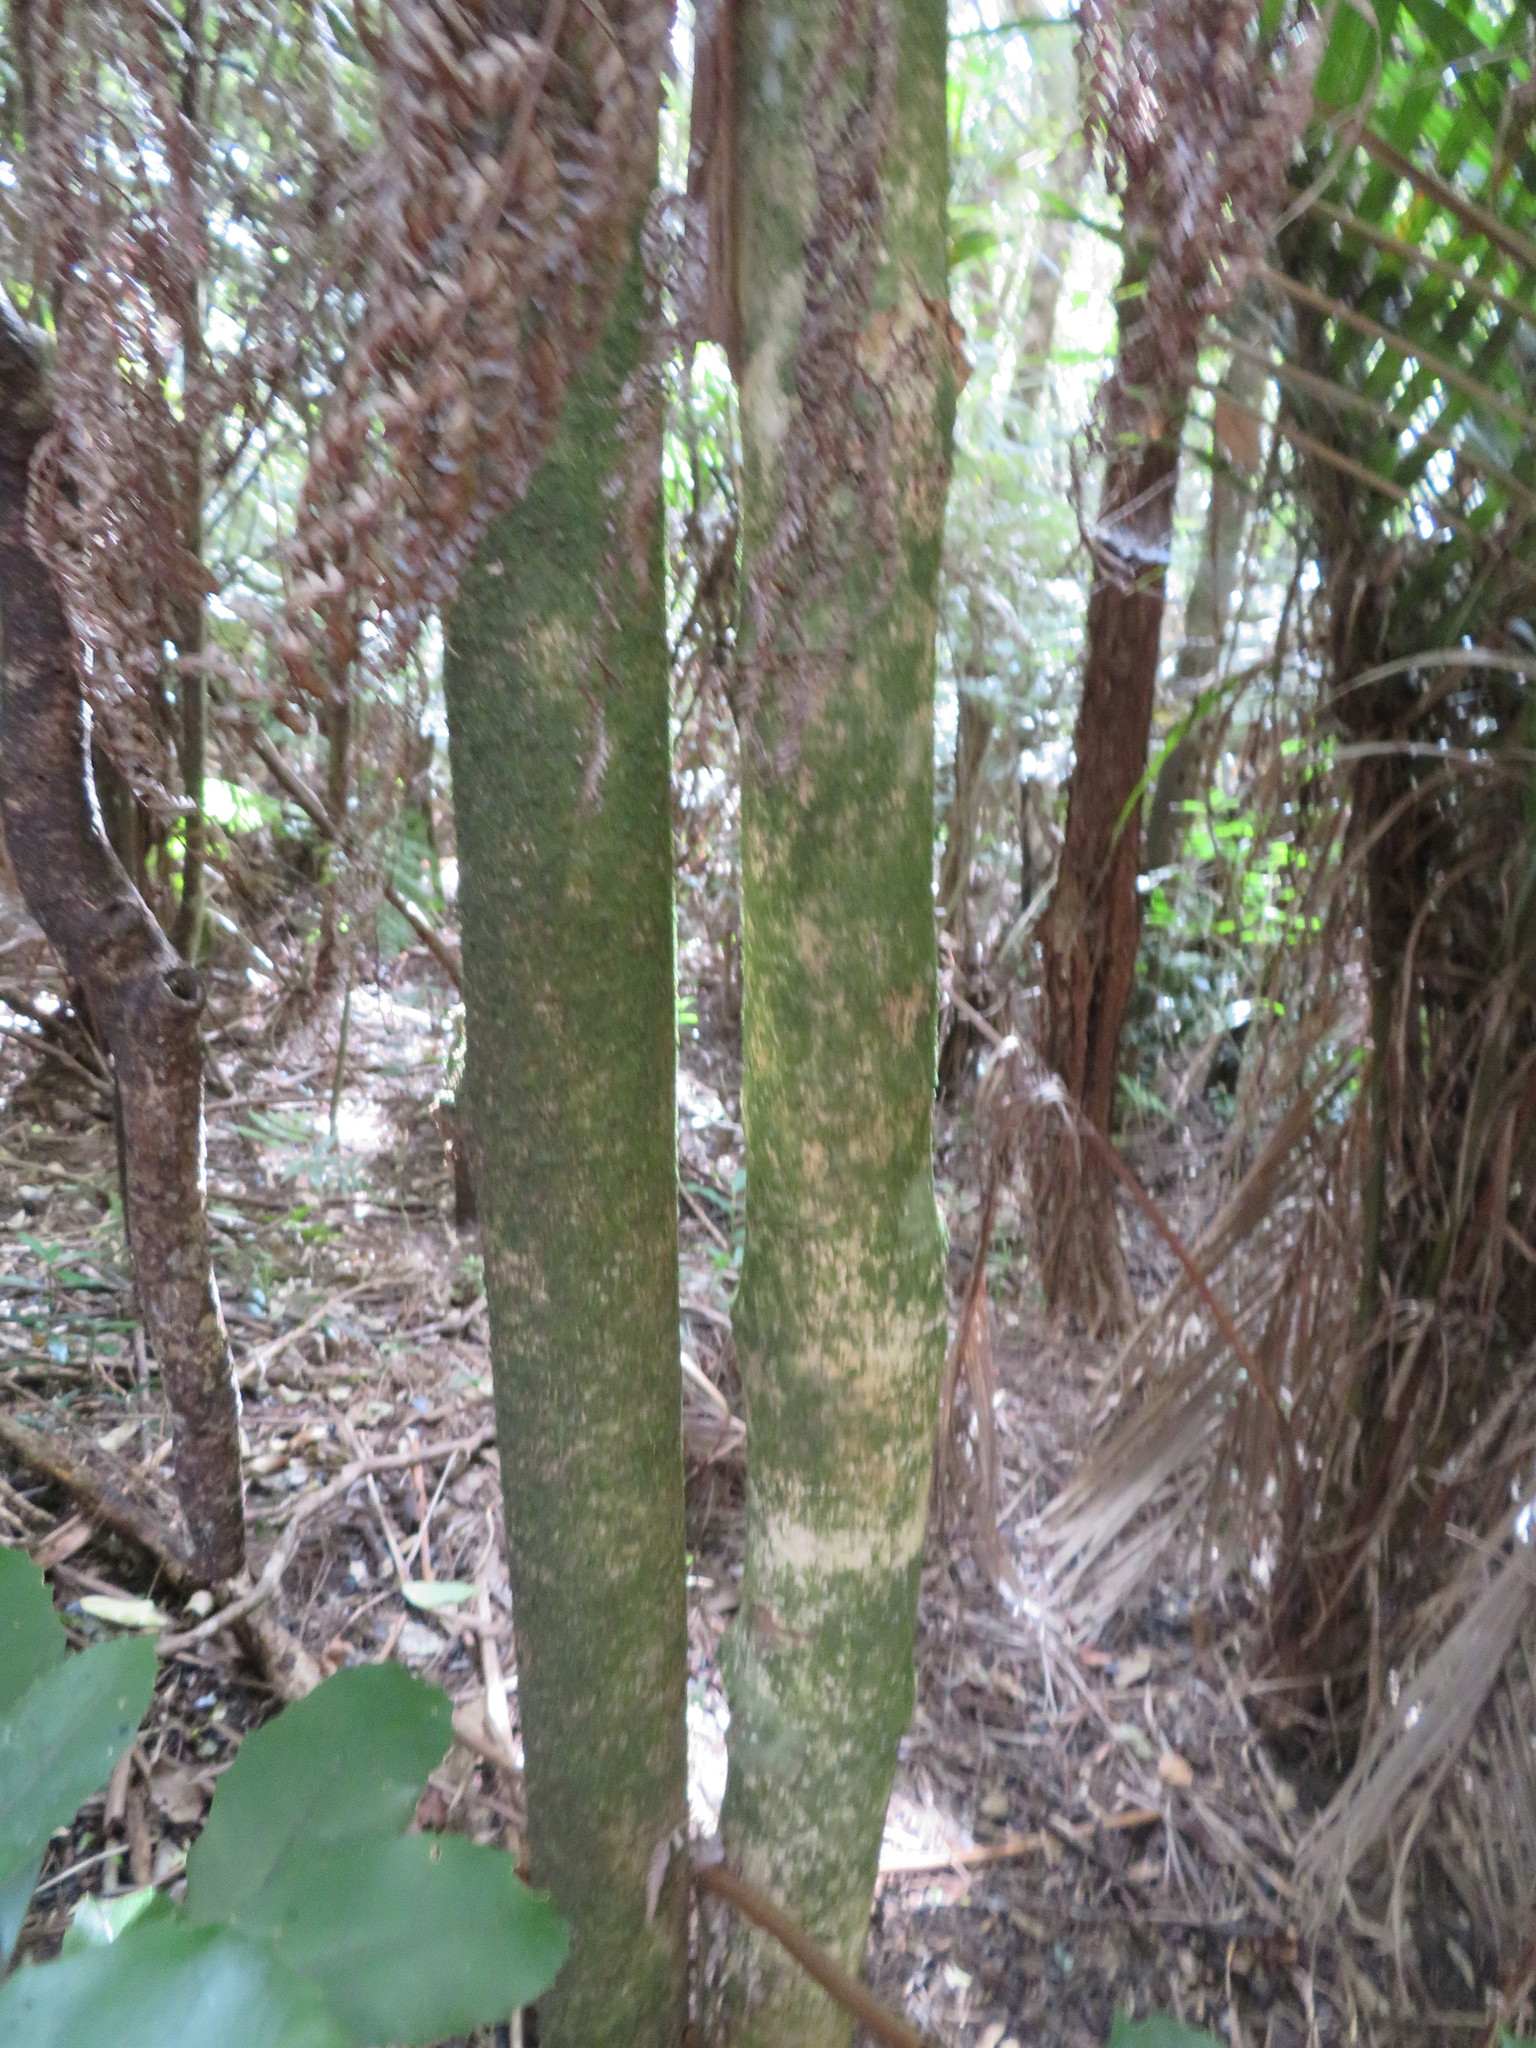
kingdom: Plantae
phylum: Tracheophyta
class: Magnoliopsida
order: Malpighiales
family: Violaceae
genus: Melicytus
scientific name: Melicytus ramiflorus
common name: Mahoe
